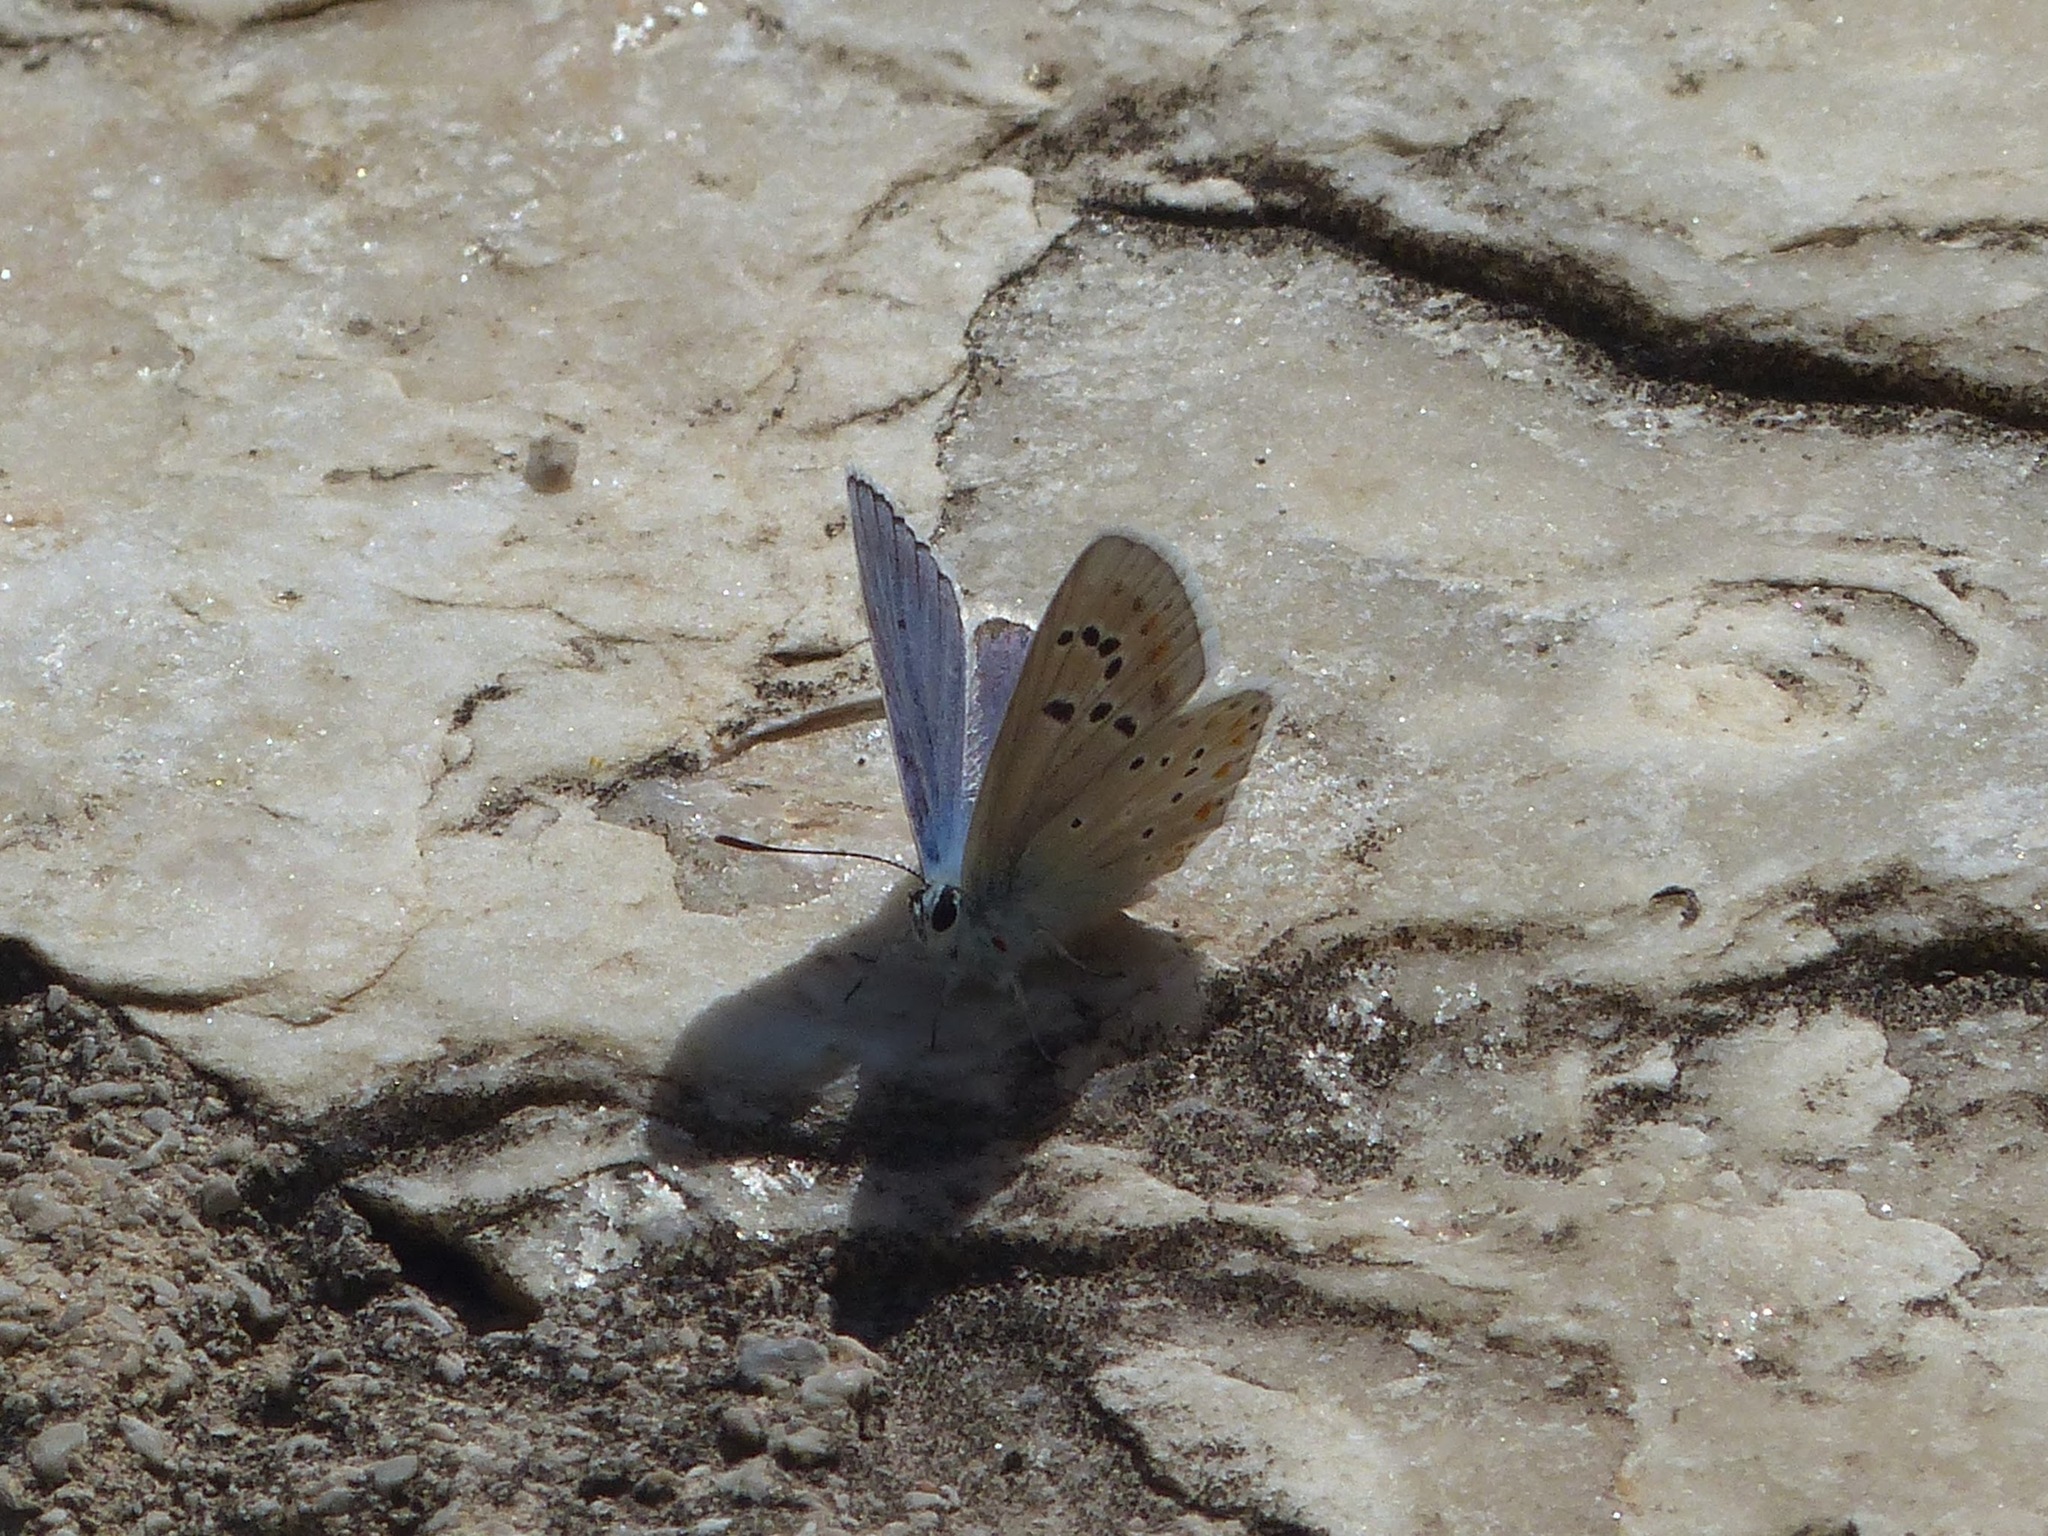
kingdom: Animalia
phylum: Arthropoda
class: Insecta
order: Lepidoptera
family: Lycaenidae
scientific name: Lycaenidae
